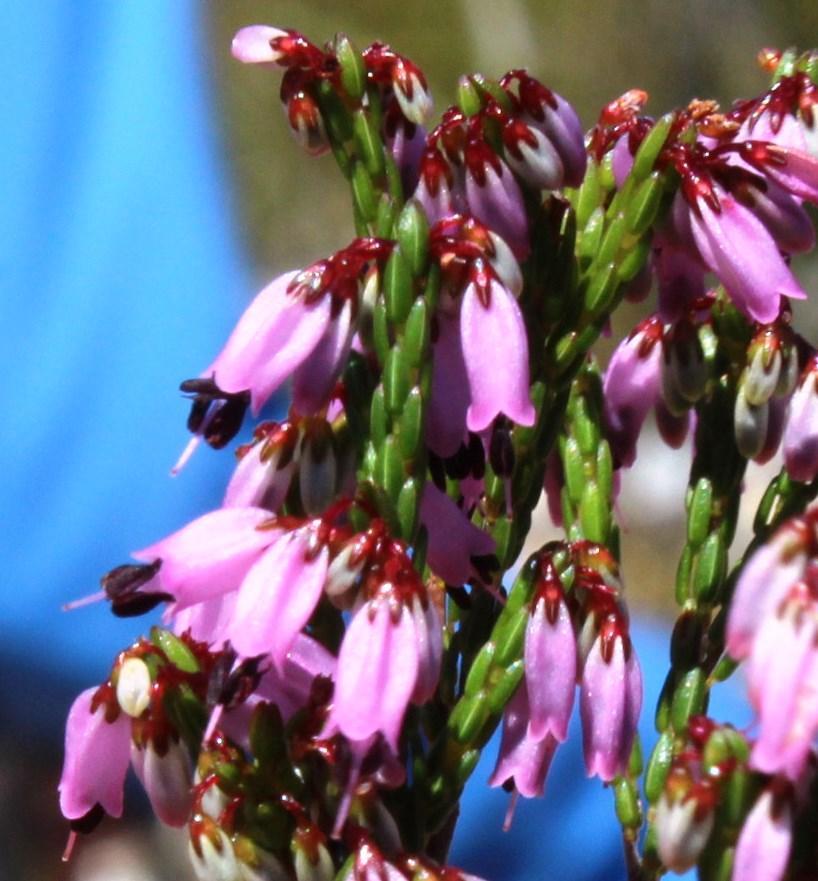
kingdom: Plantae
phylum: Tracheophyta
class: Magnoliopsida
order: Ericales
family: Ericaceae
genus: Erica
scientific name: Erica equisetifolia
